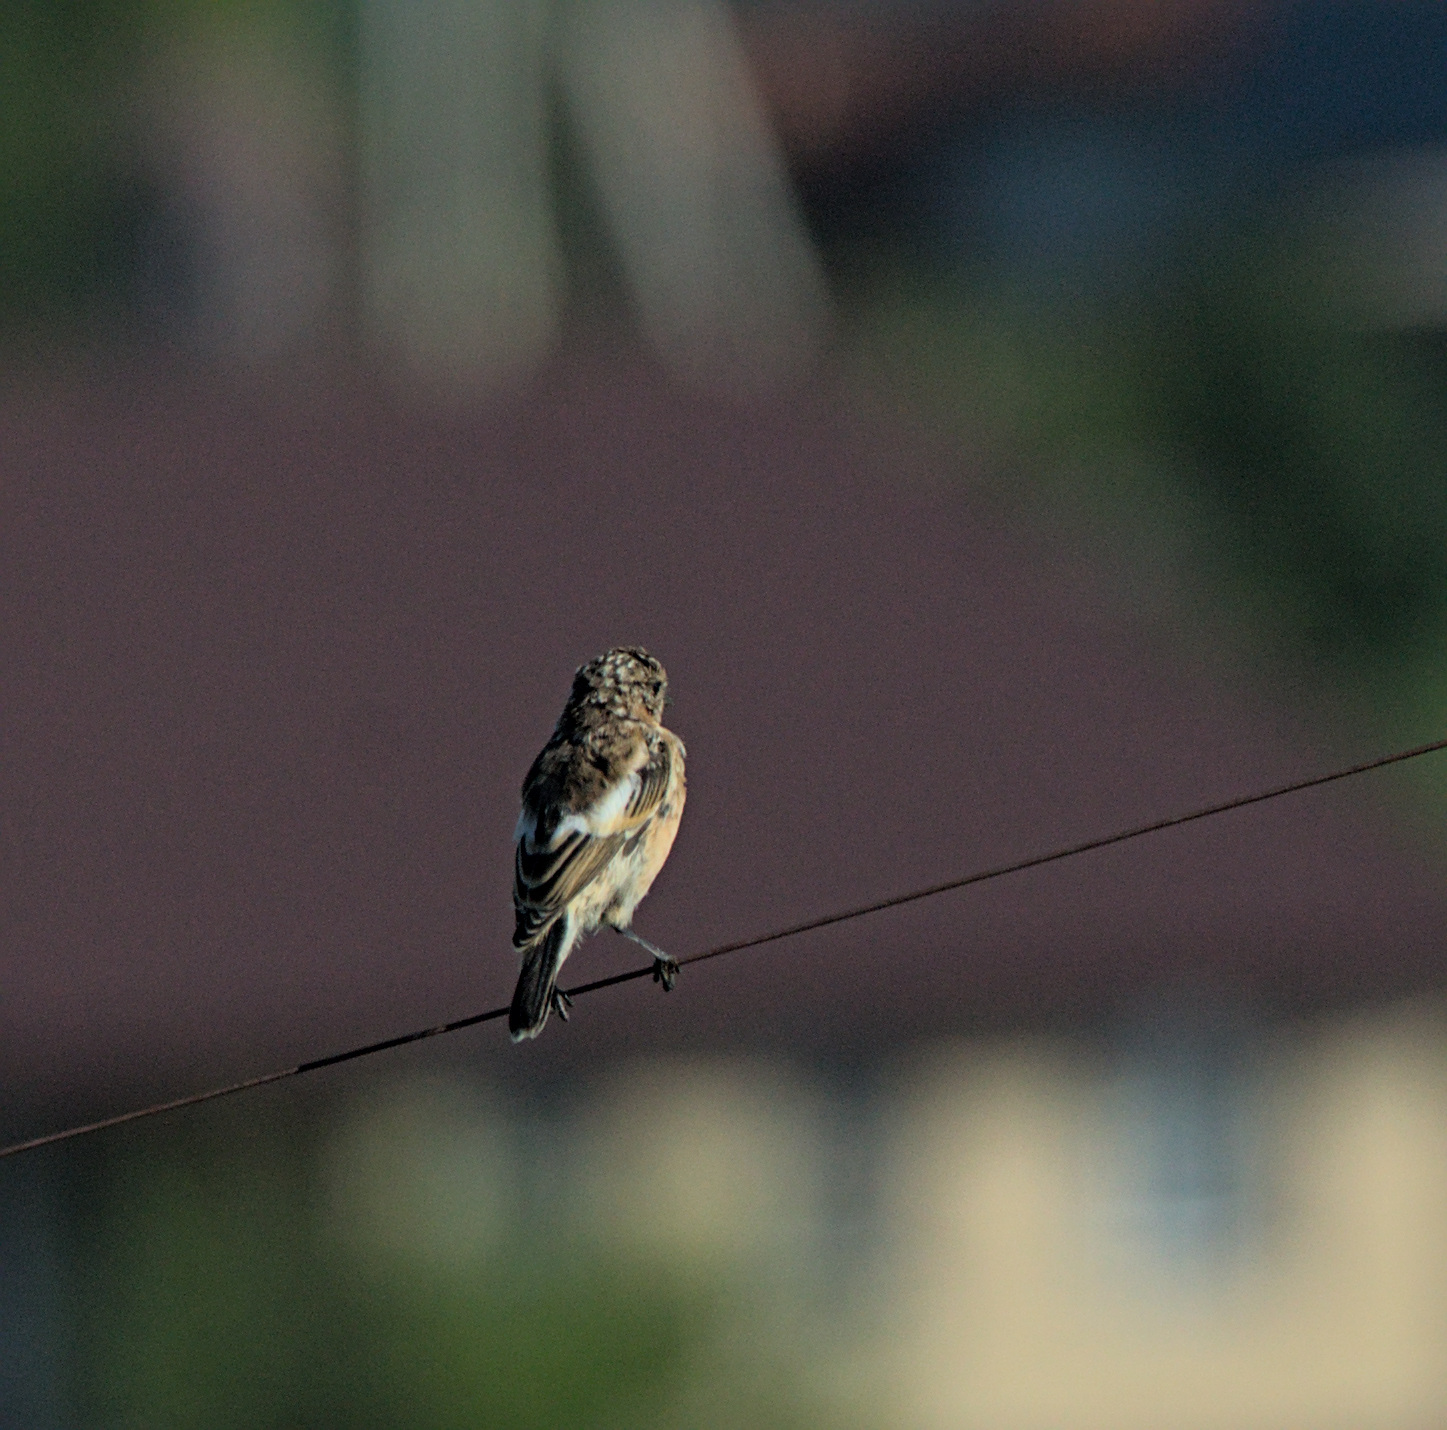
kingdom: Animalia
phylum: Chordata
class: Aves
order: Passeriformes
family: Muscicapidae
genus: Saxicola
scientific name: Saxicola maurus
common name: Siberian stonechat
